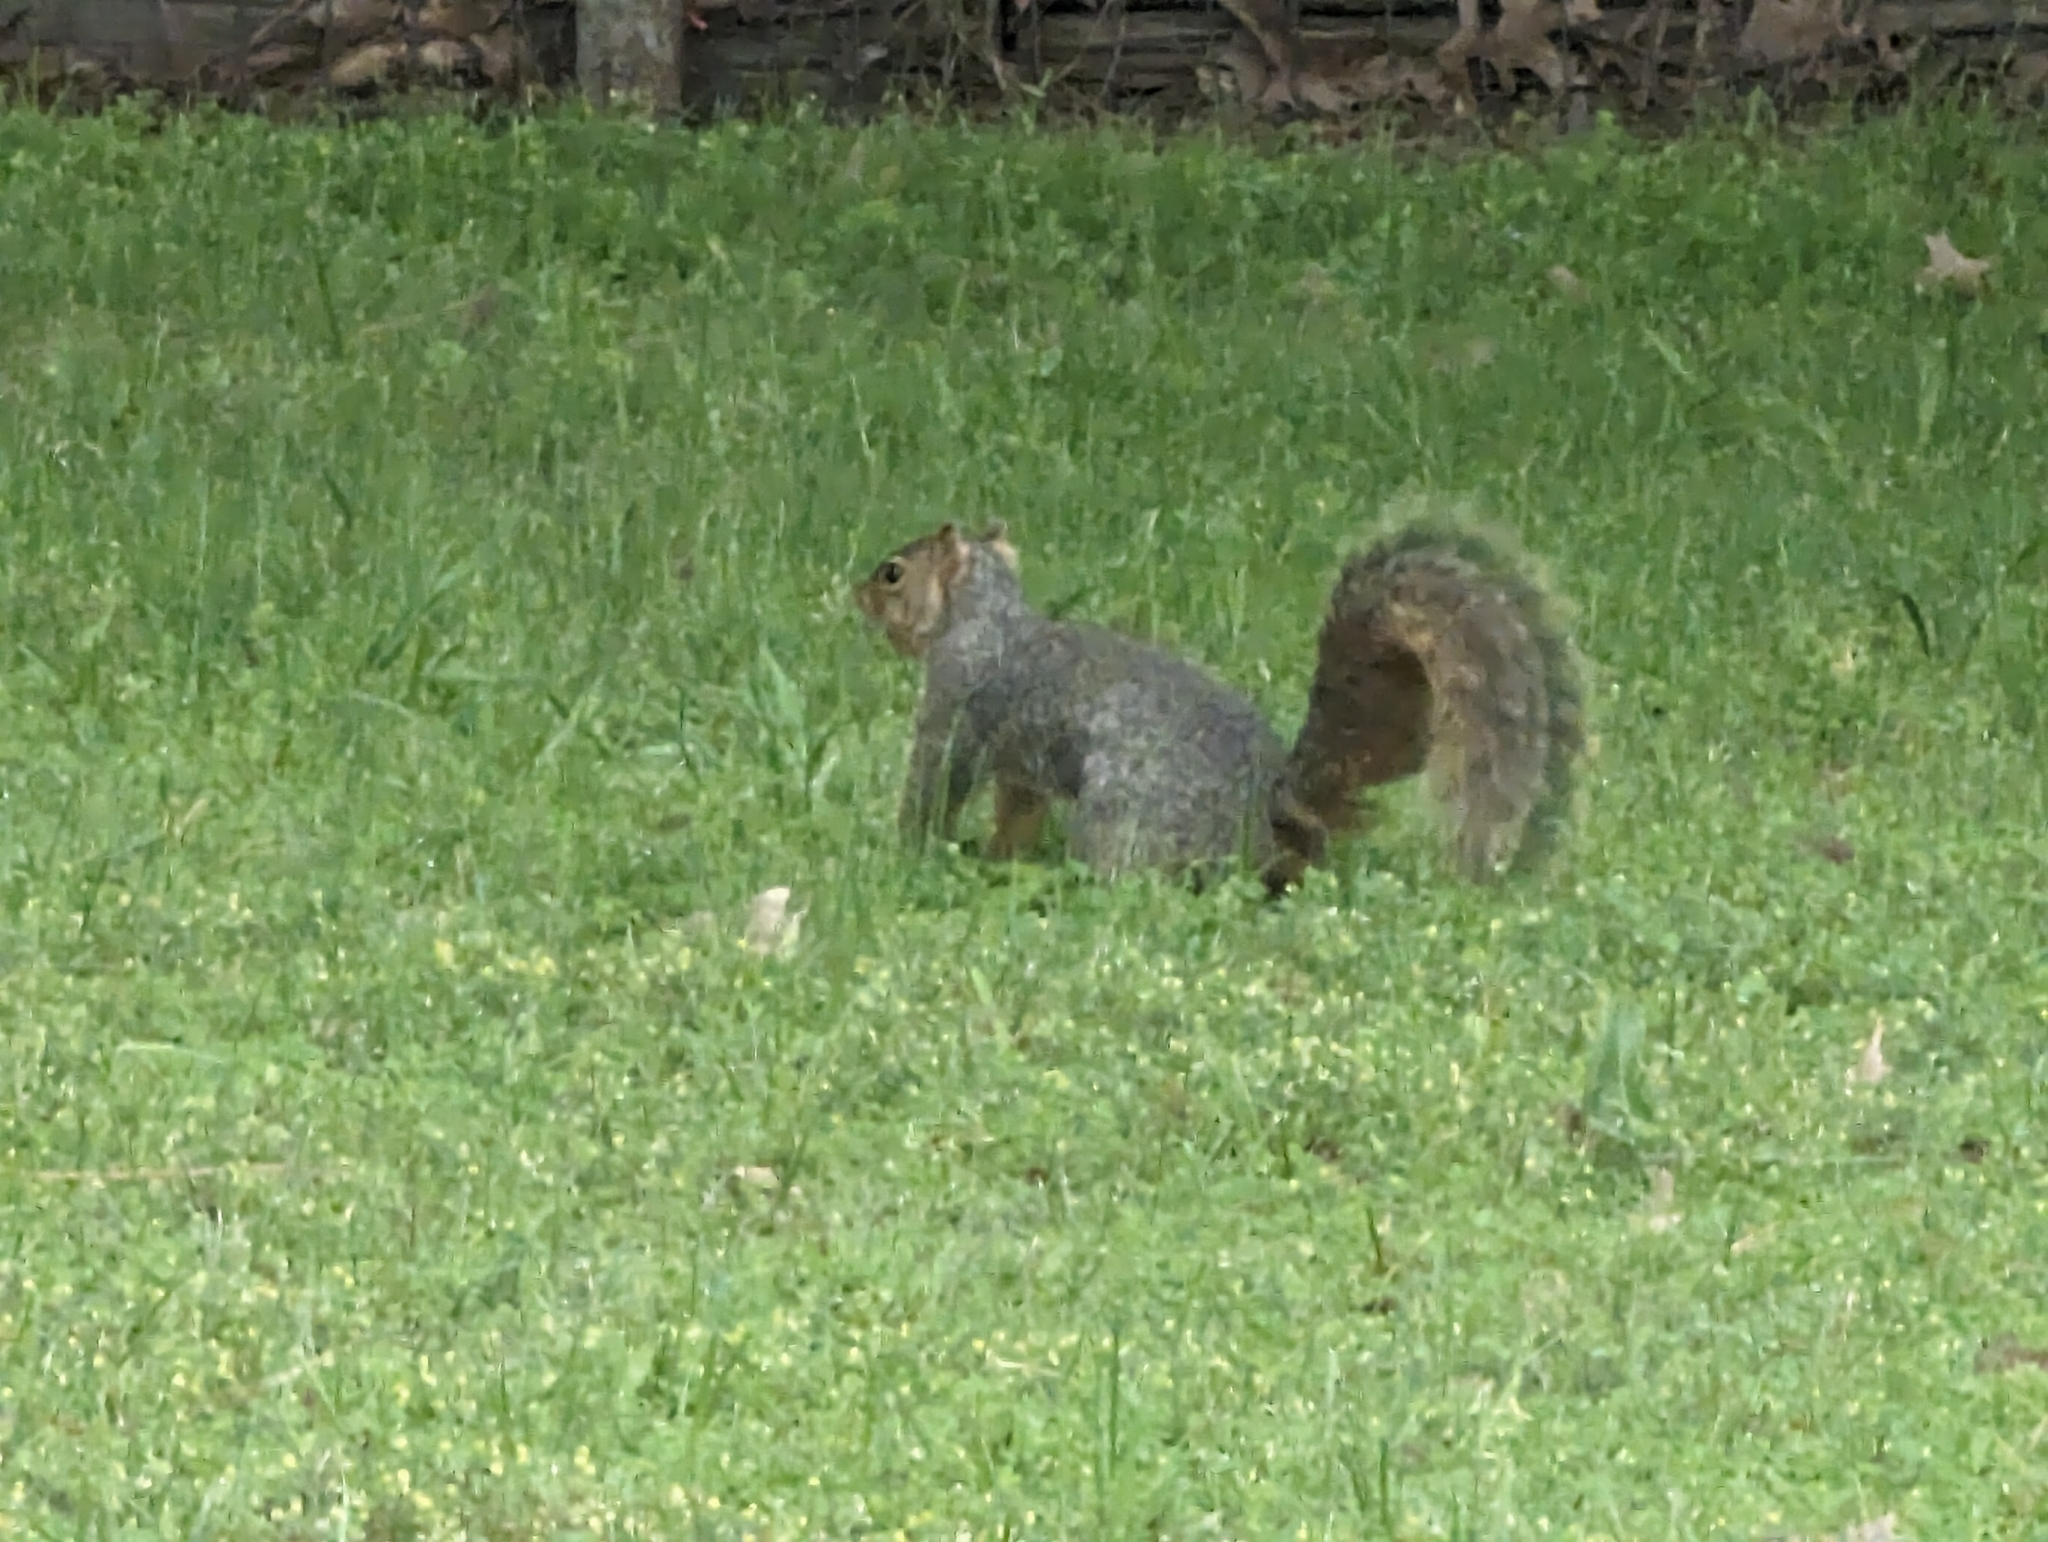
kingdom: Animalia
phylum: Chordata
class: Mammalia
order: Rodentia
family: Sciuridae
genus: Sciurus
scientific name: Sciurus carolinensis
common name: Eastern gray squirrel
